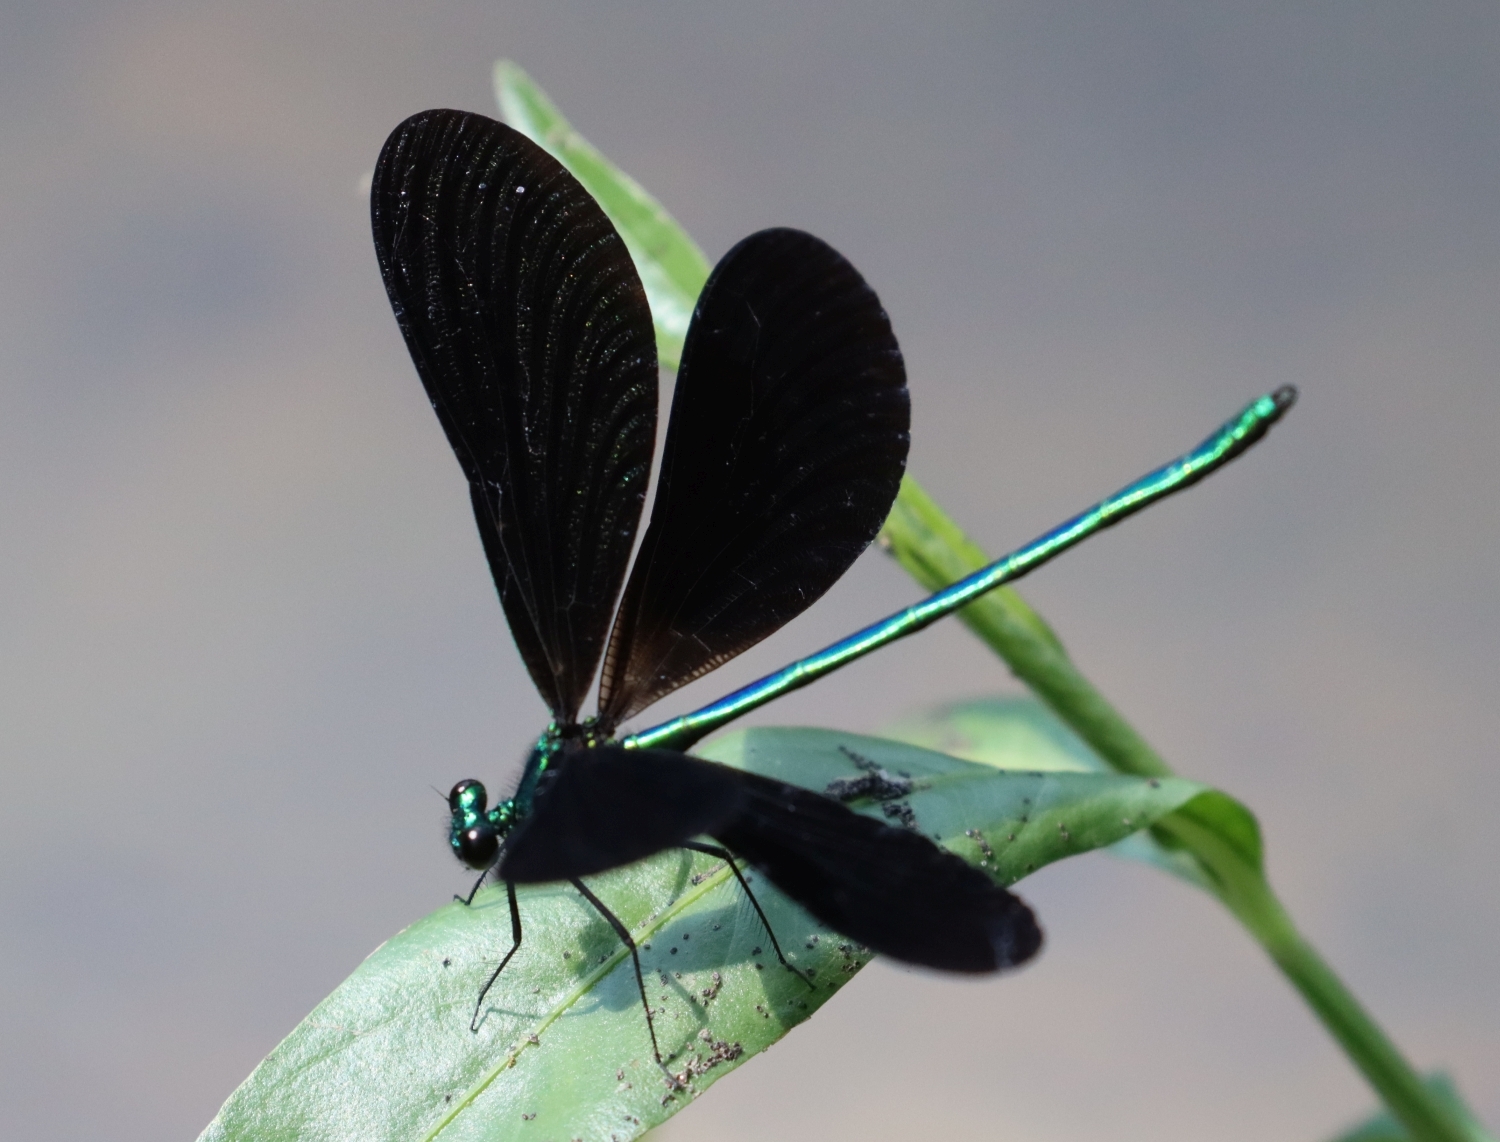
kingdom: Animalia
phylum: Arthropoda
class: Insecta
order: Odonata
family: Calopterygidae
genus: Calopteryx
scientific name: Calopteryx maculata
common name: Ebony jewelwing
